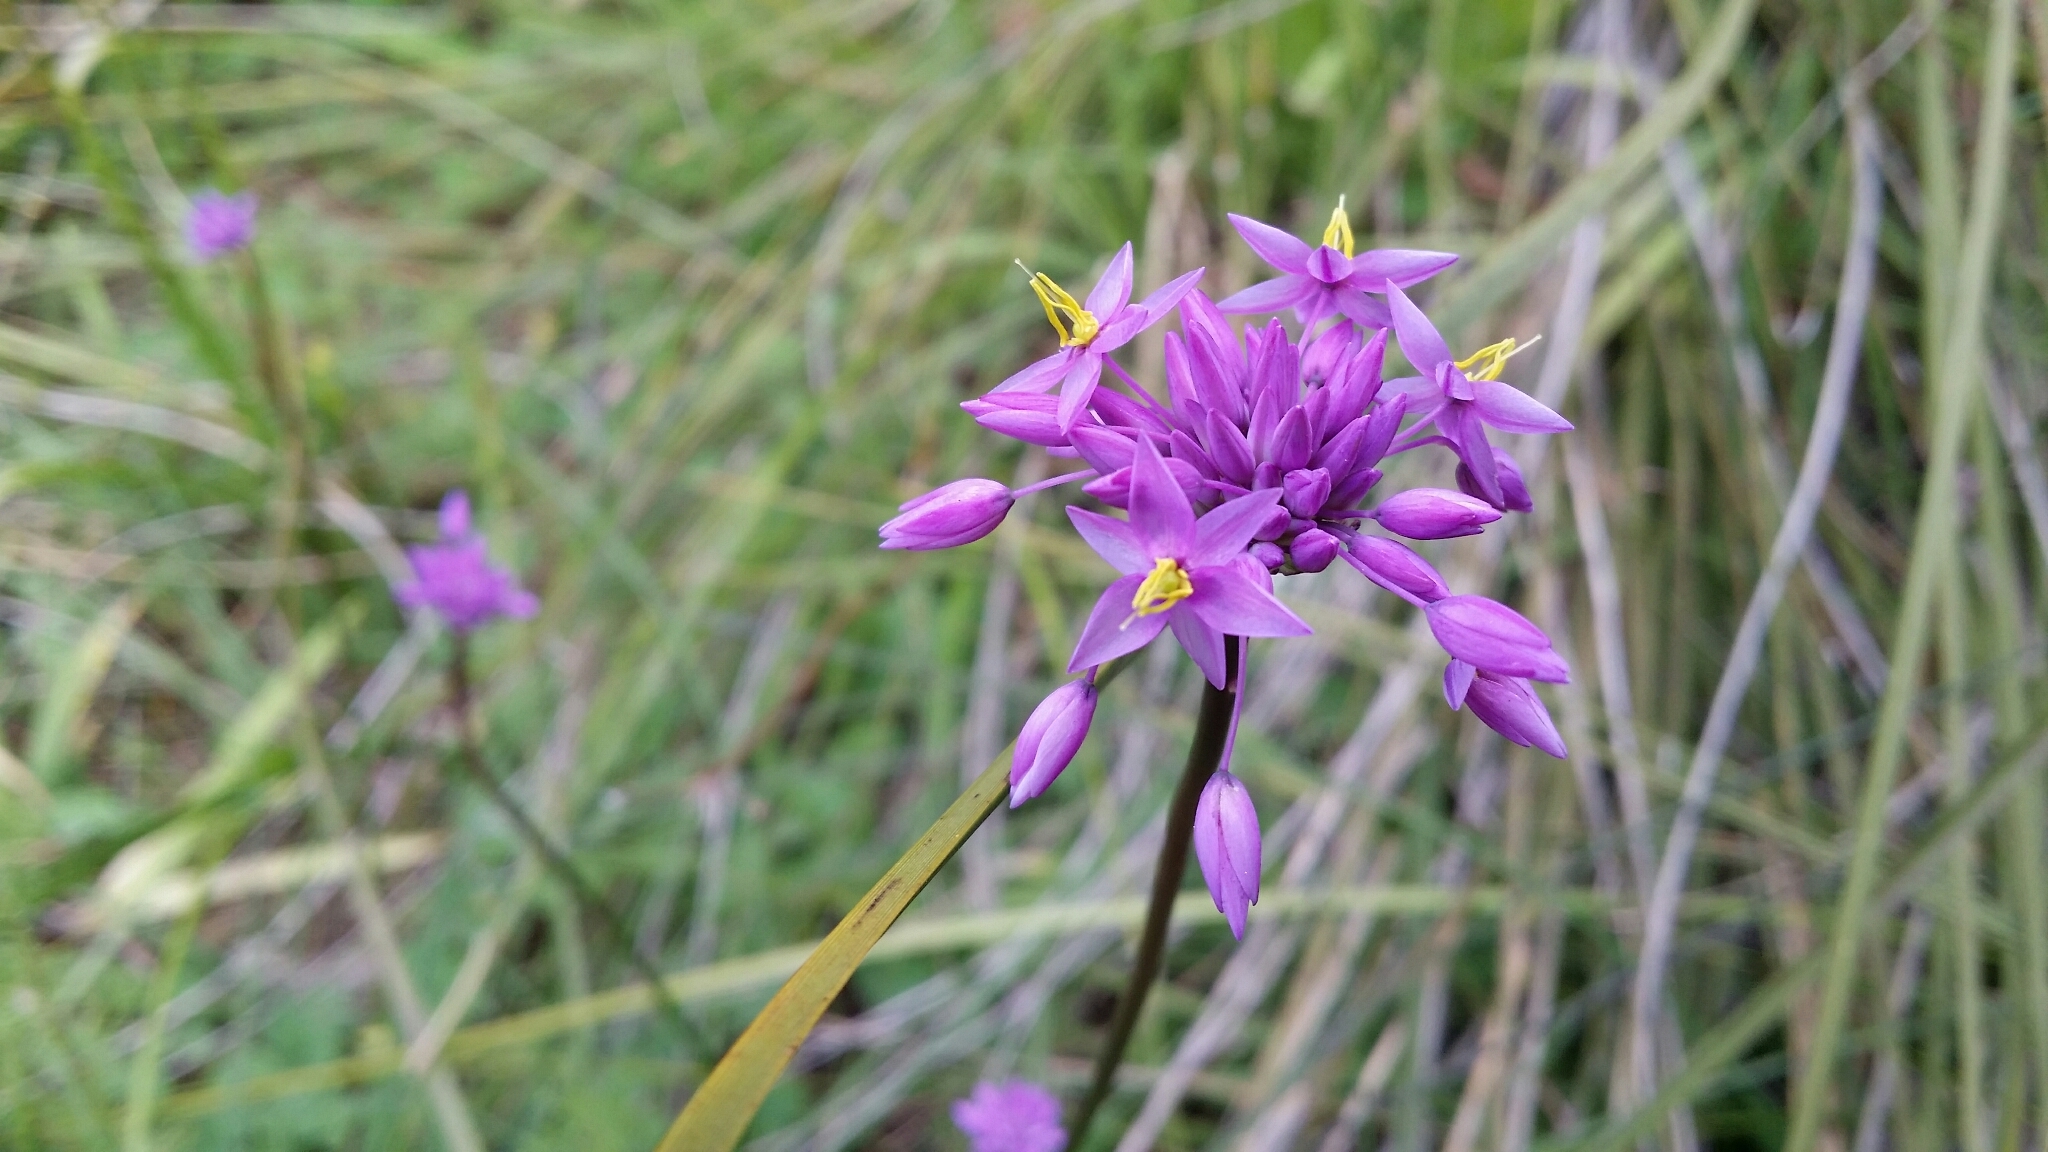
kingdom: Plantae
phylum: Tracheophyta
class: Liliopsida
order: Asparagales
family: Asparagaceae
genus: Sowerbaea
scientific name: Sowerbaea laxiflora
